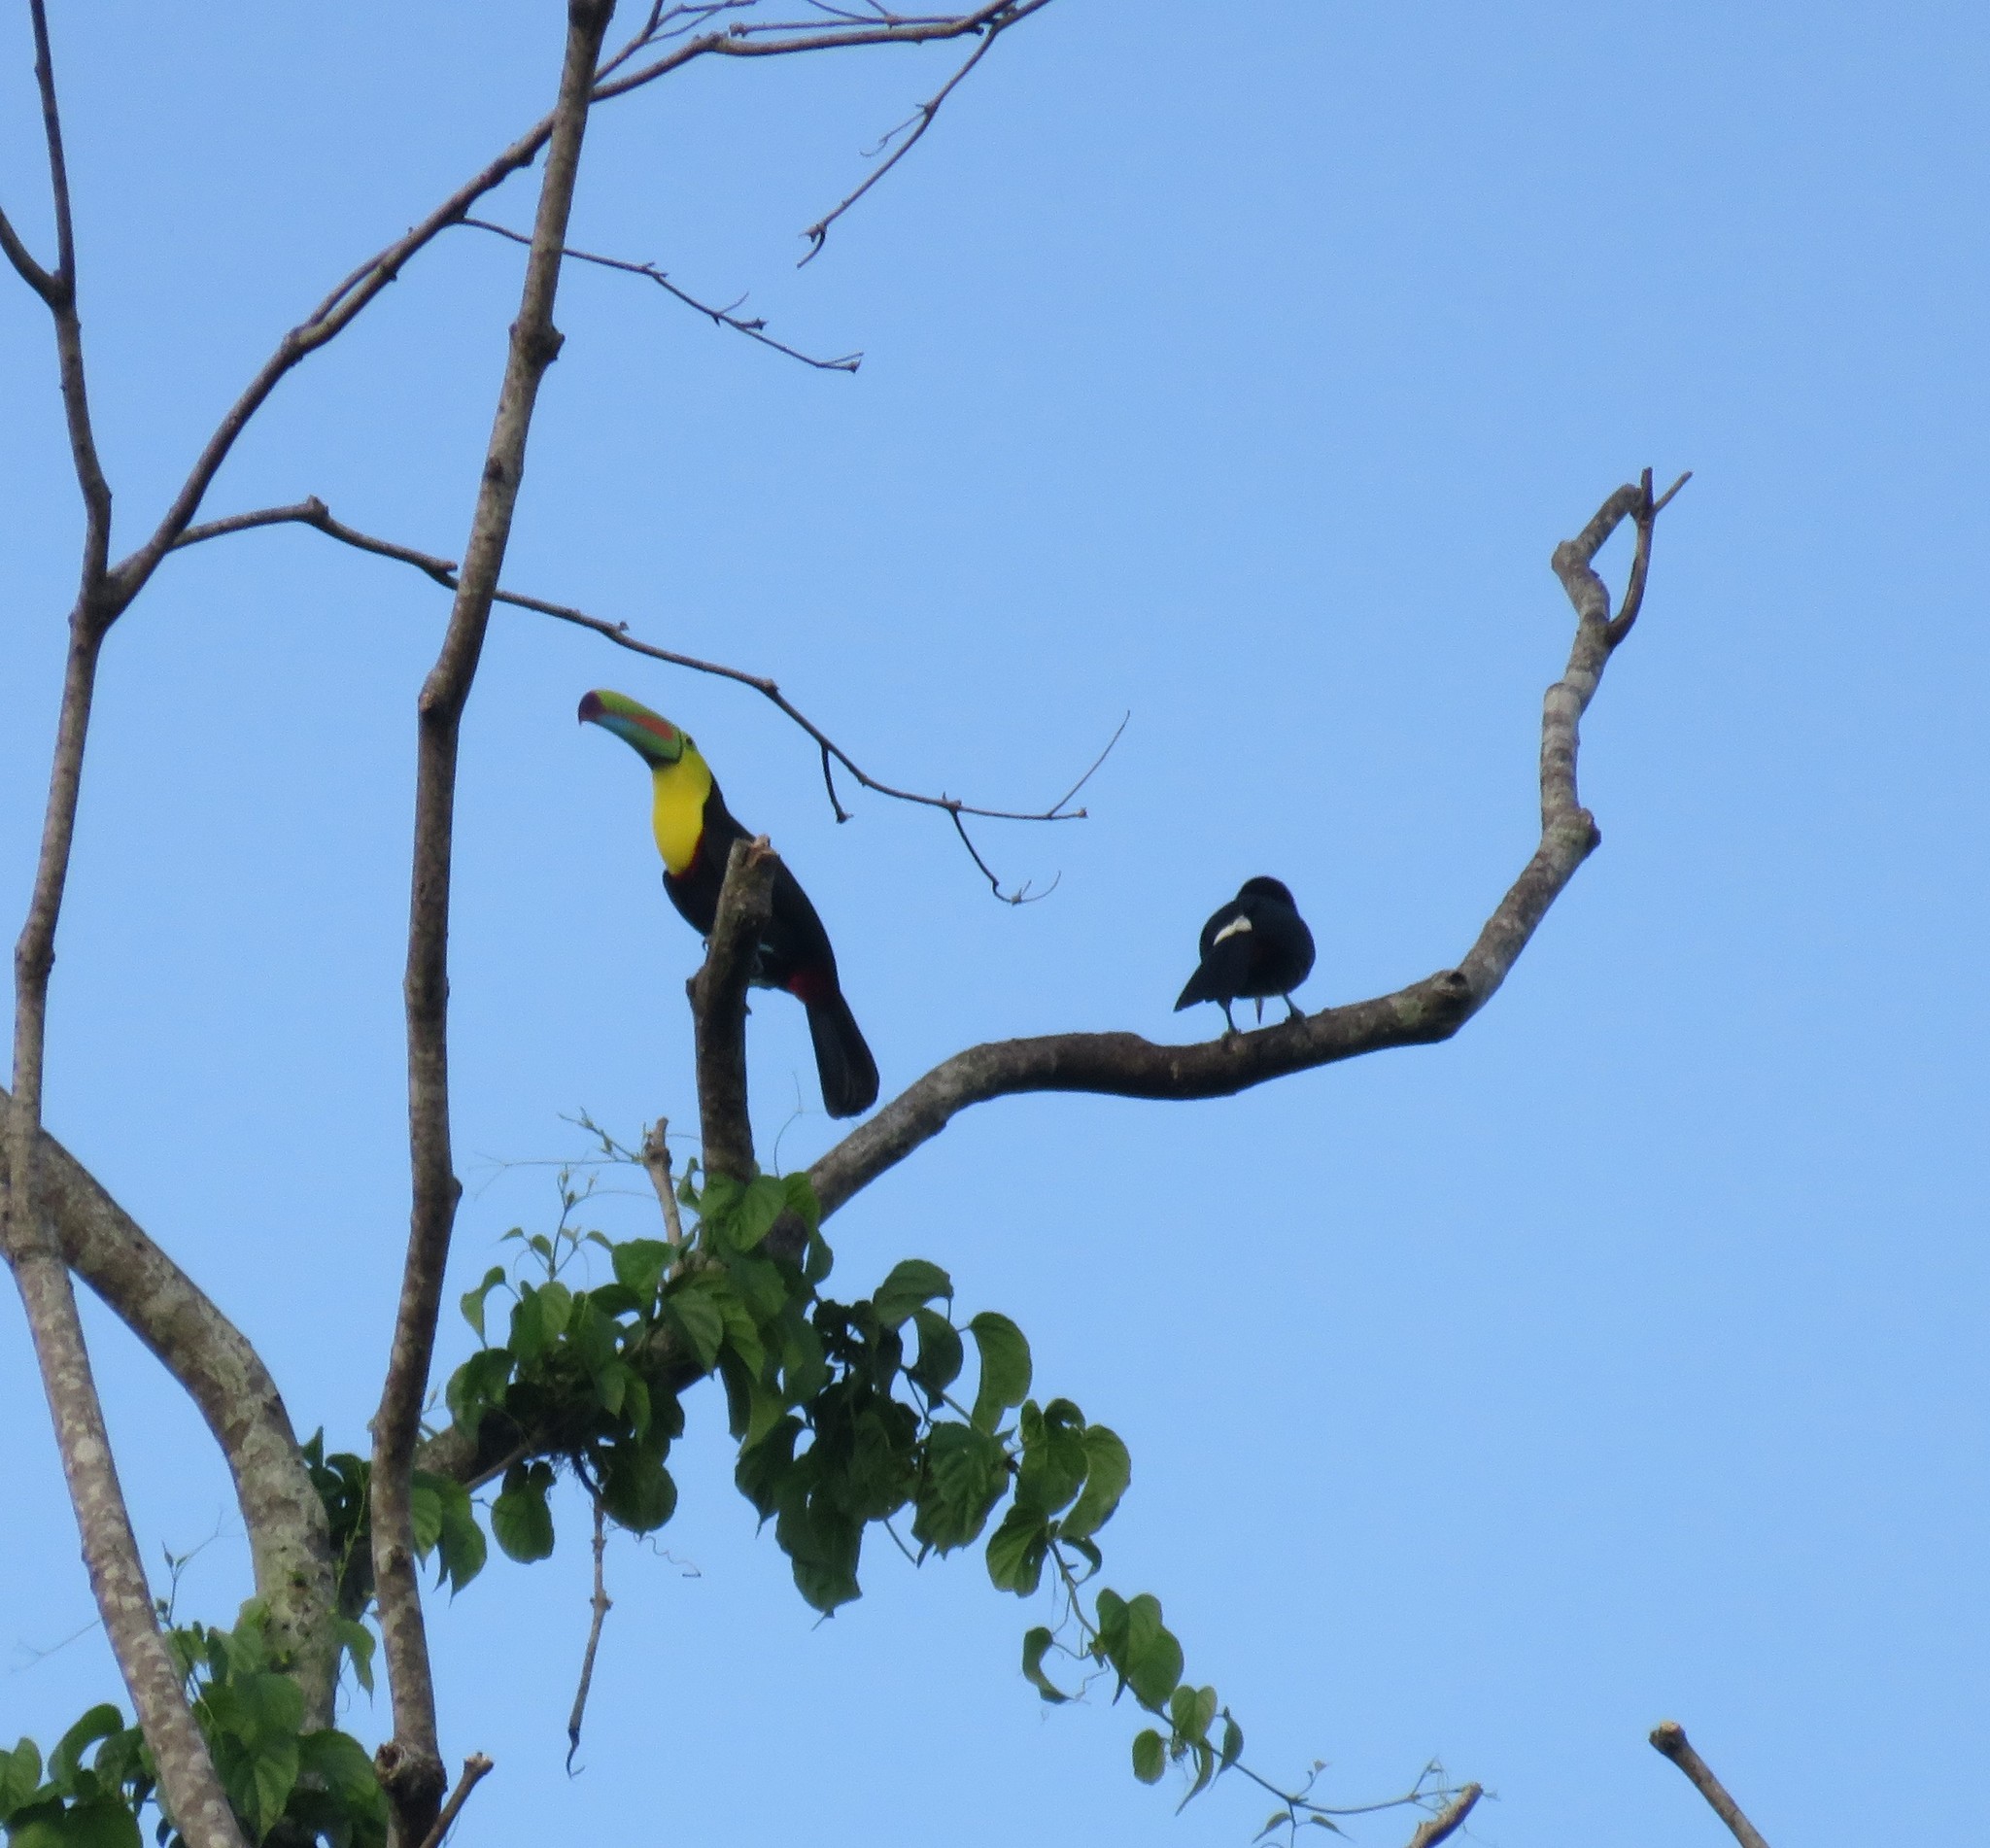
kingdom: Animalia
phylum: Chordata
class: Aves
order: Piciformes
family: Ramphastidae
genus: Ramphastos
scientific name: Ramphastos sulfuratus
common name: Keel-billed toucan
